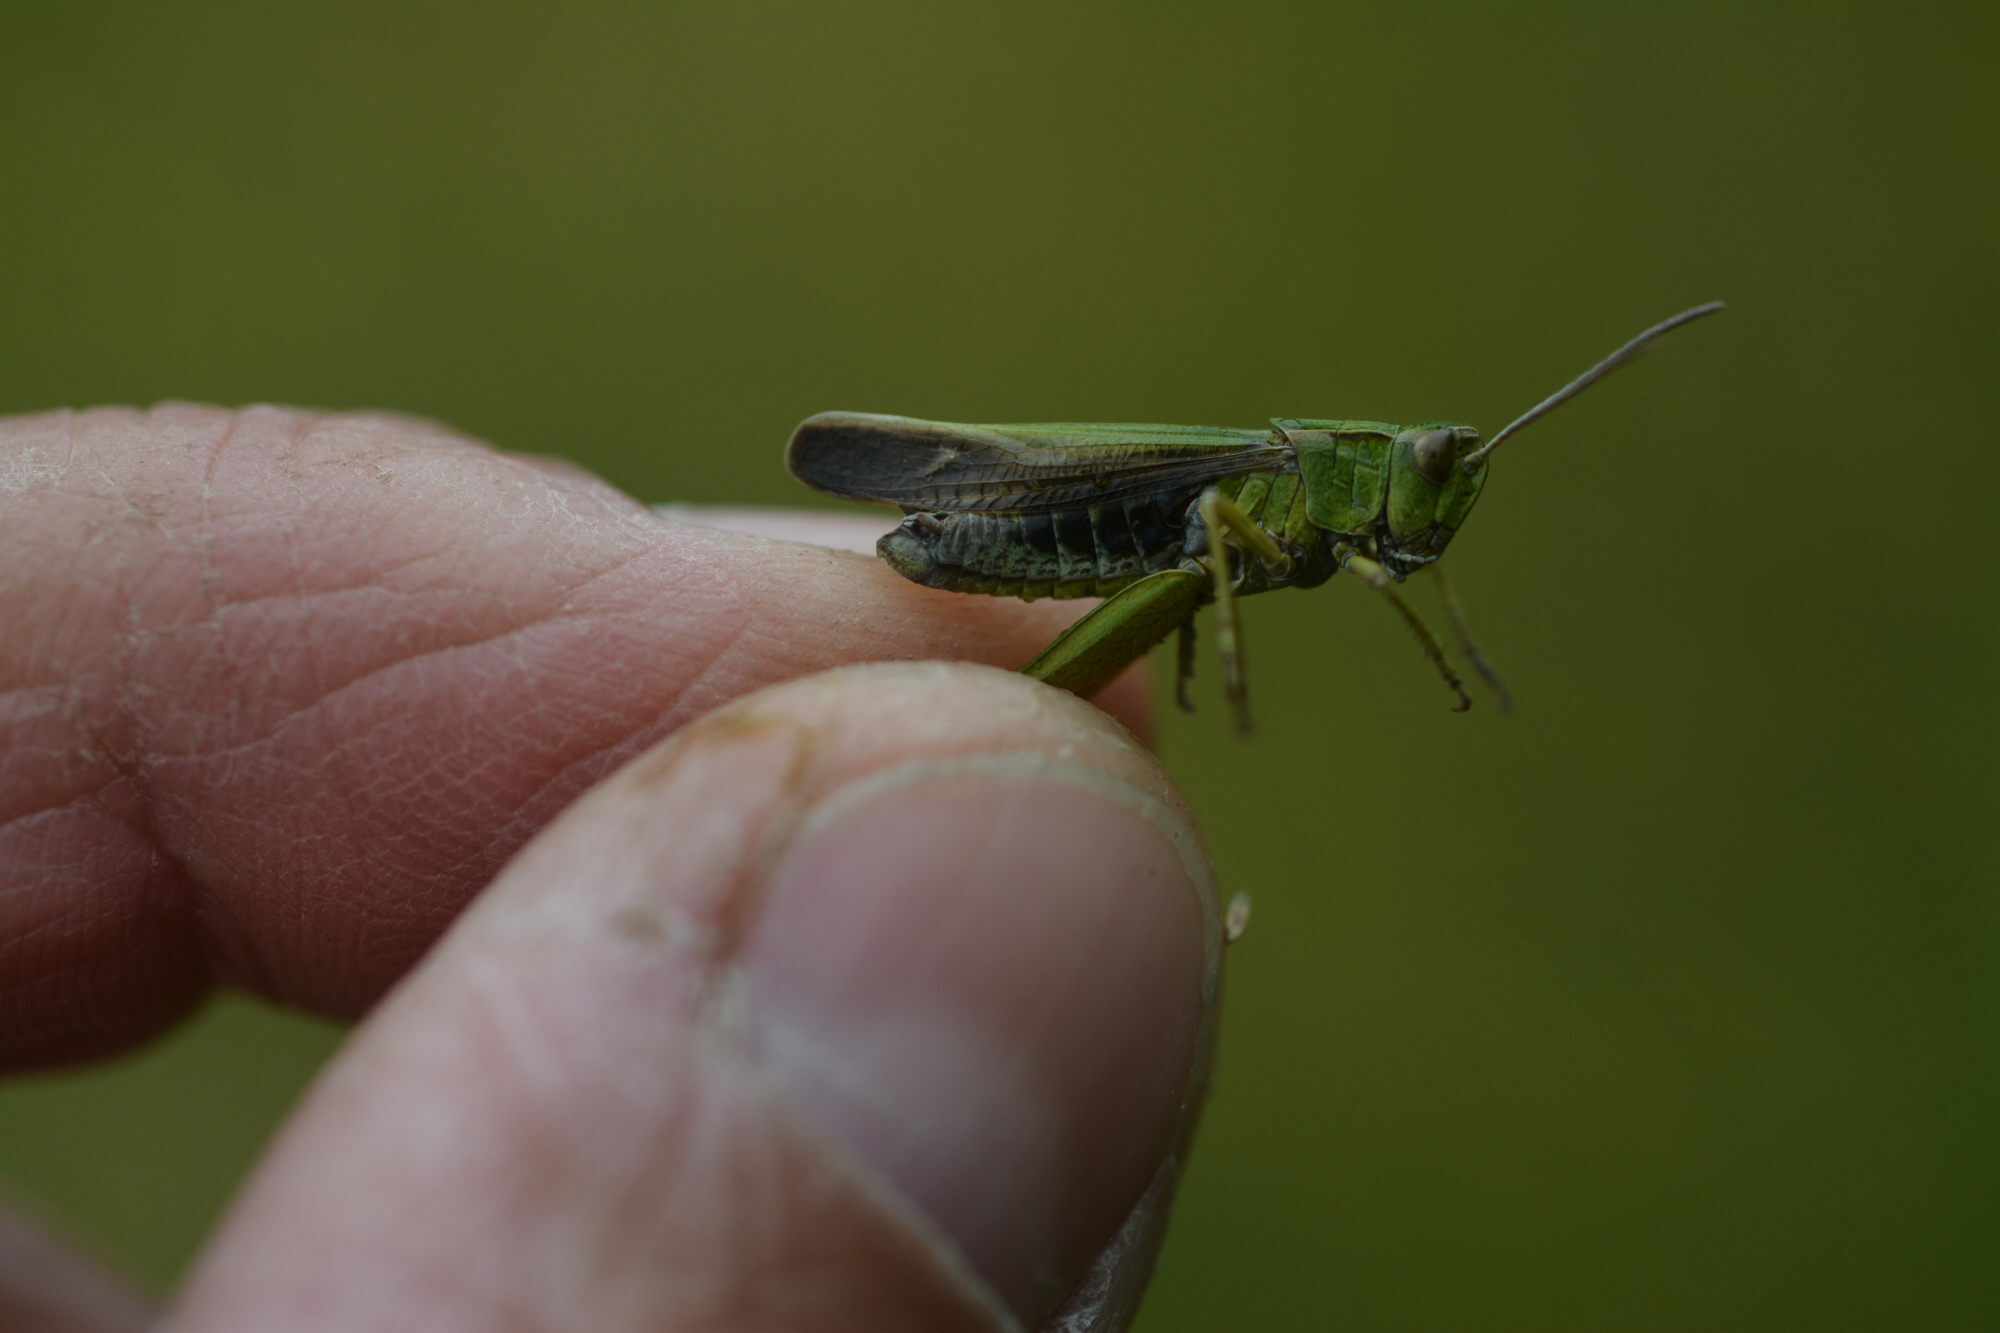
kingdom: Animalia
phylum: Arthropoda
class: Insecta
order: Orthoptera
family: Acrididae
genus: Omocestus
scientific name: Omocestus viridulus
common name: Common green grasshopper
